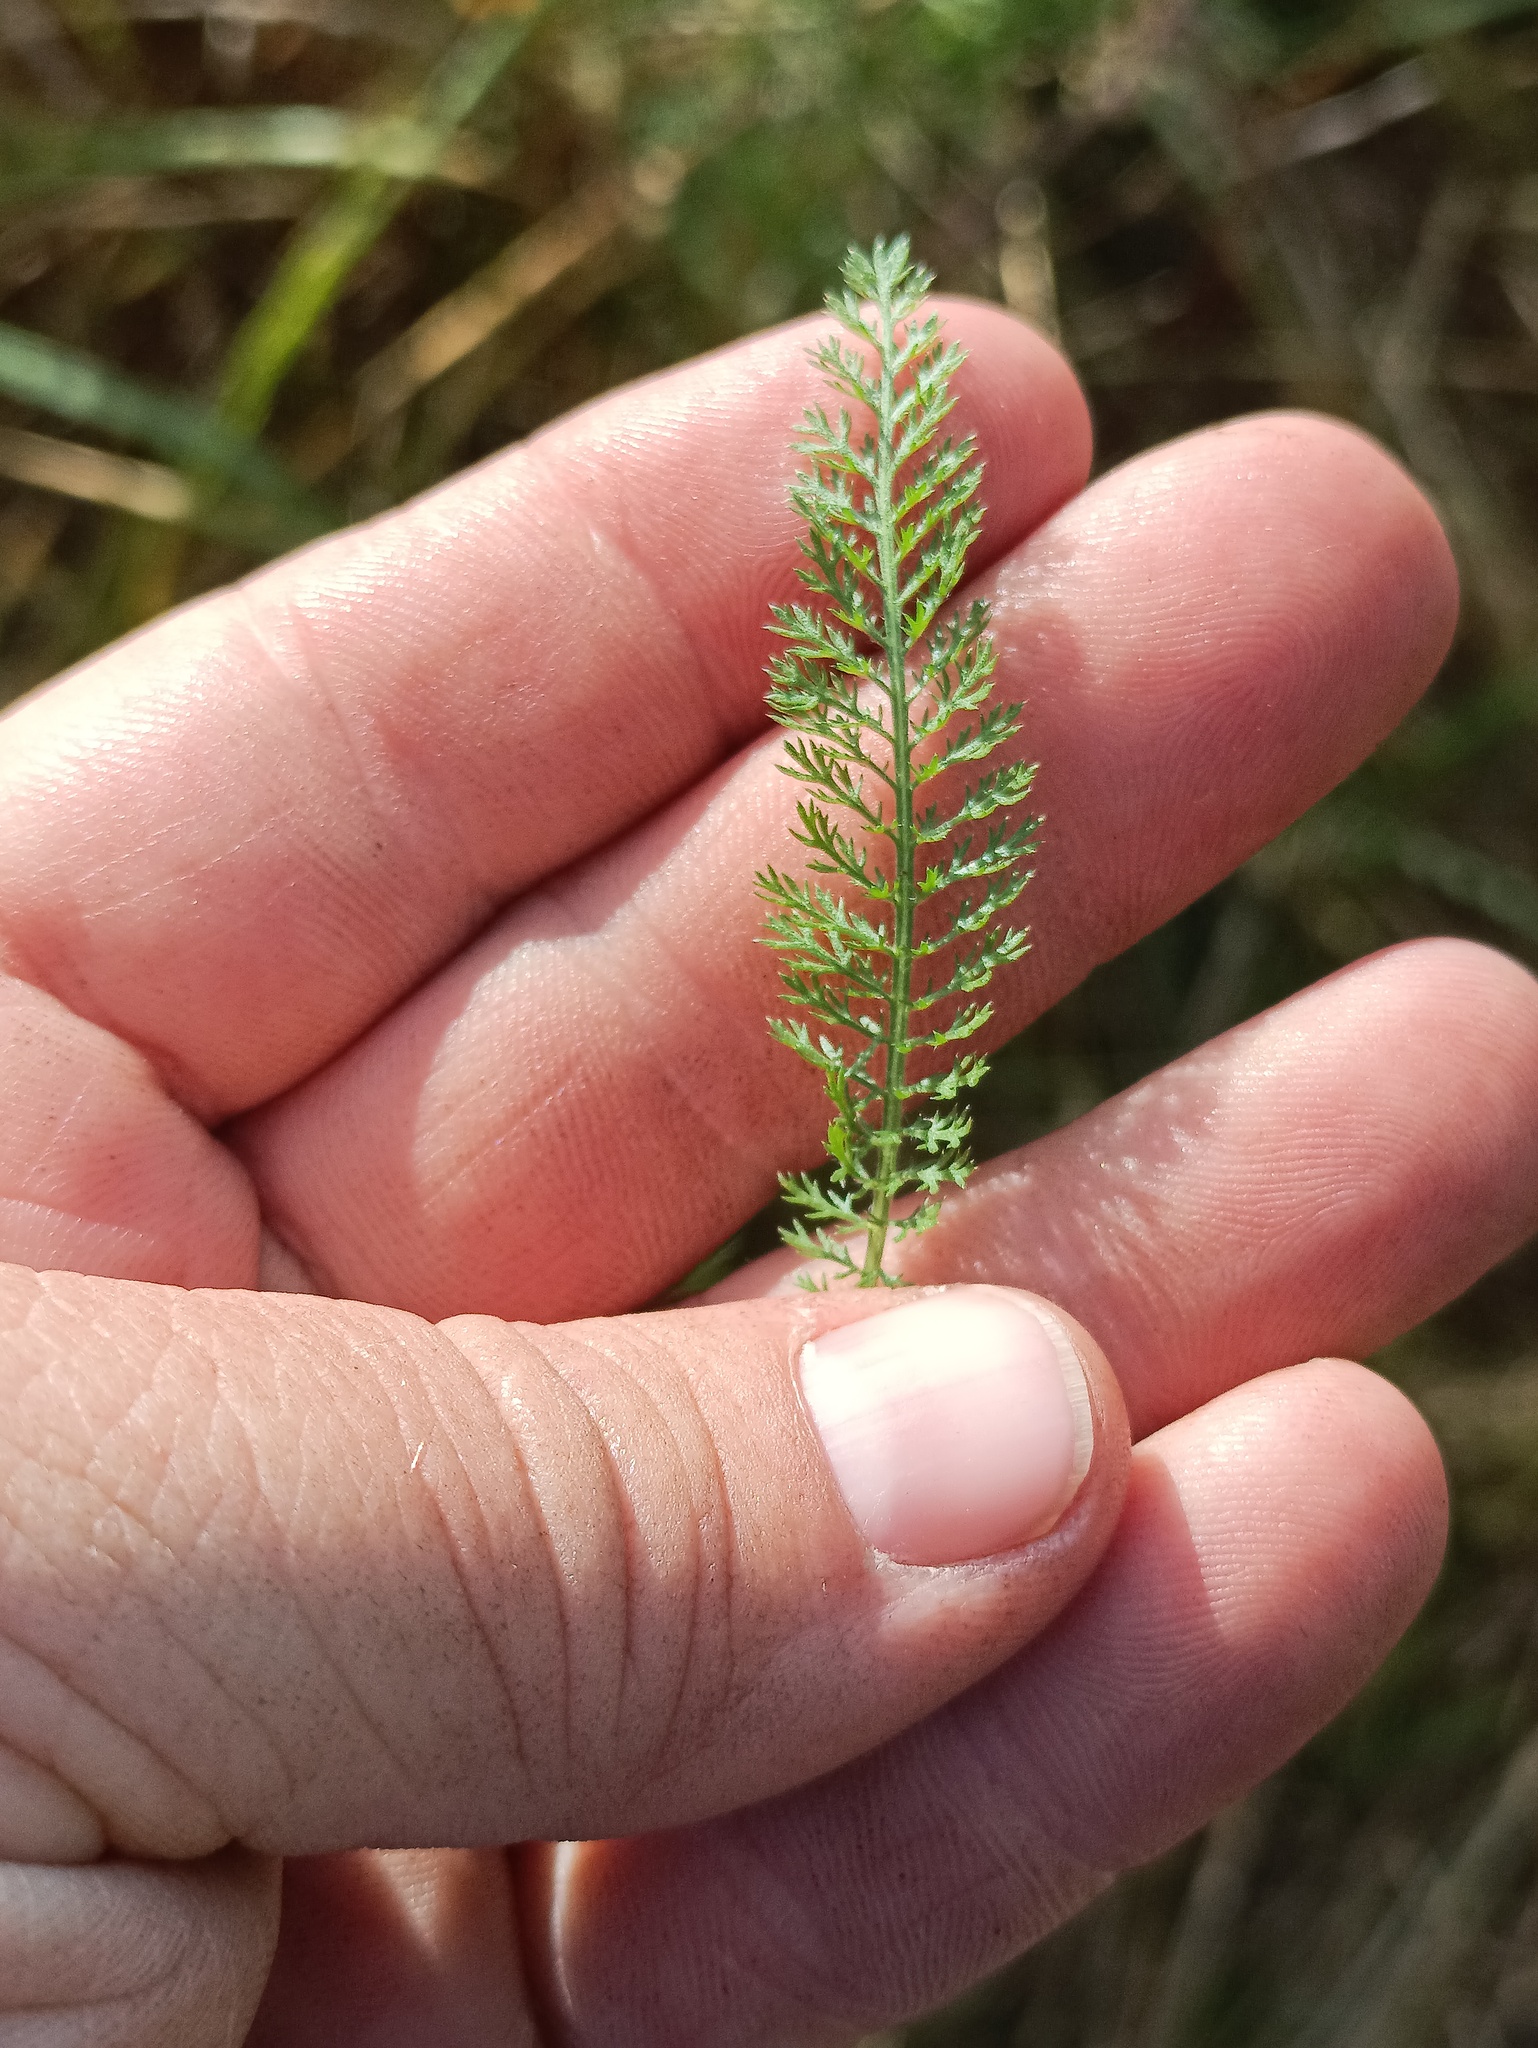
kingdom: Plantae
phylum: Tracheophyta
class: Magnoliopsida
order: Asterales
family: Asteraceae
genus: Achillea
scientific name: Achillea millefolium
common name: Yarrow
